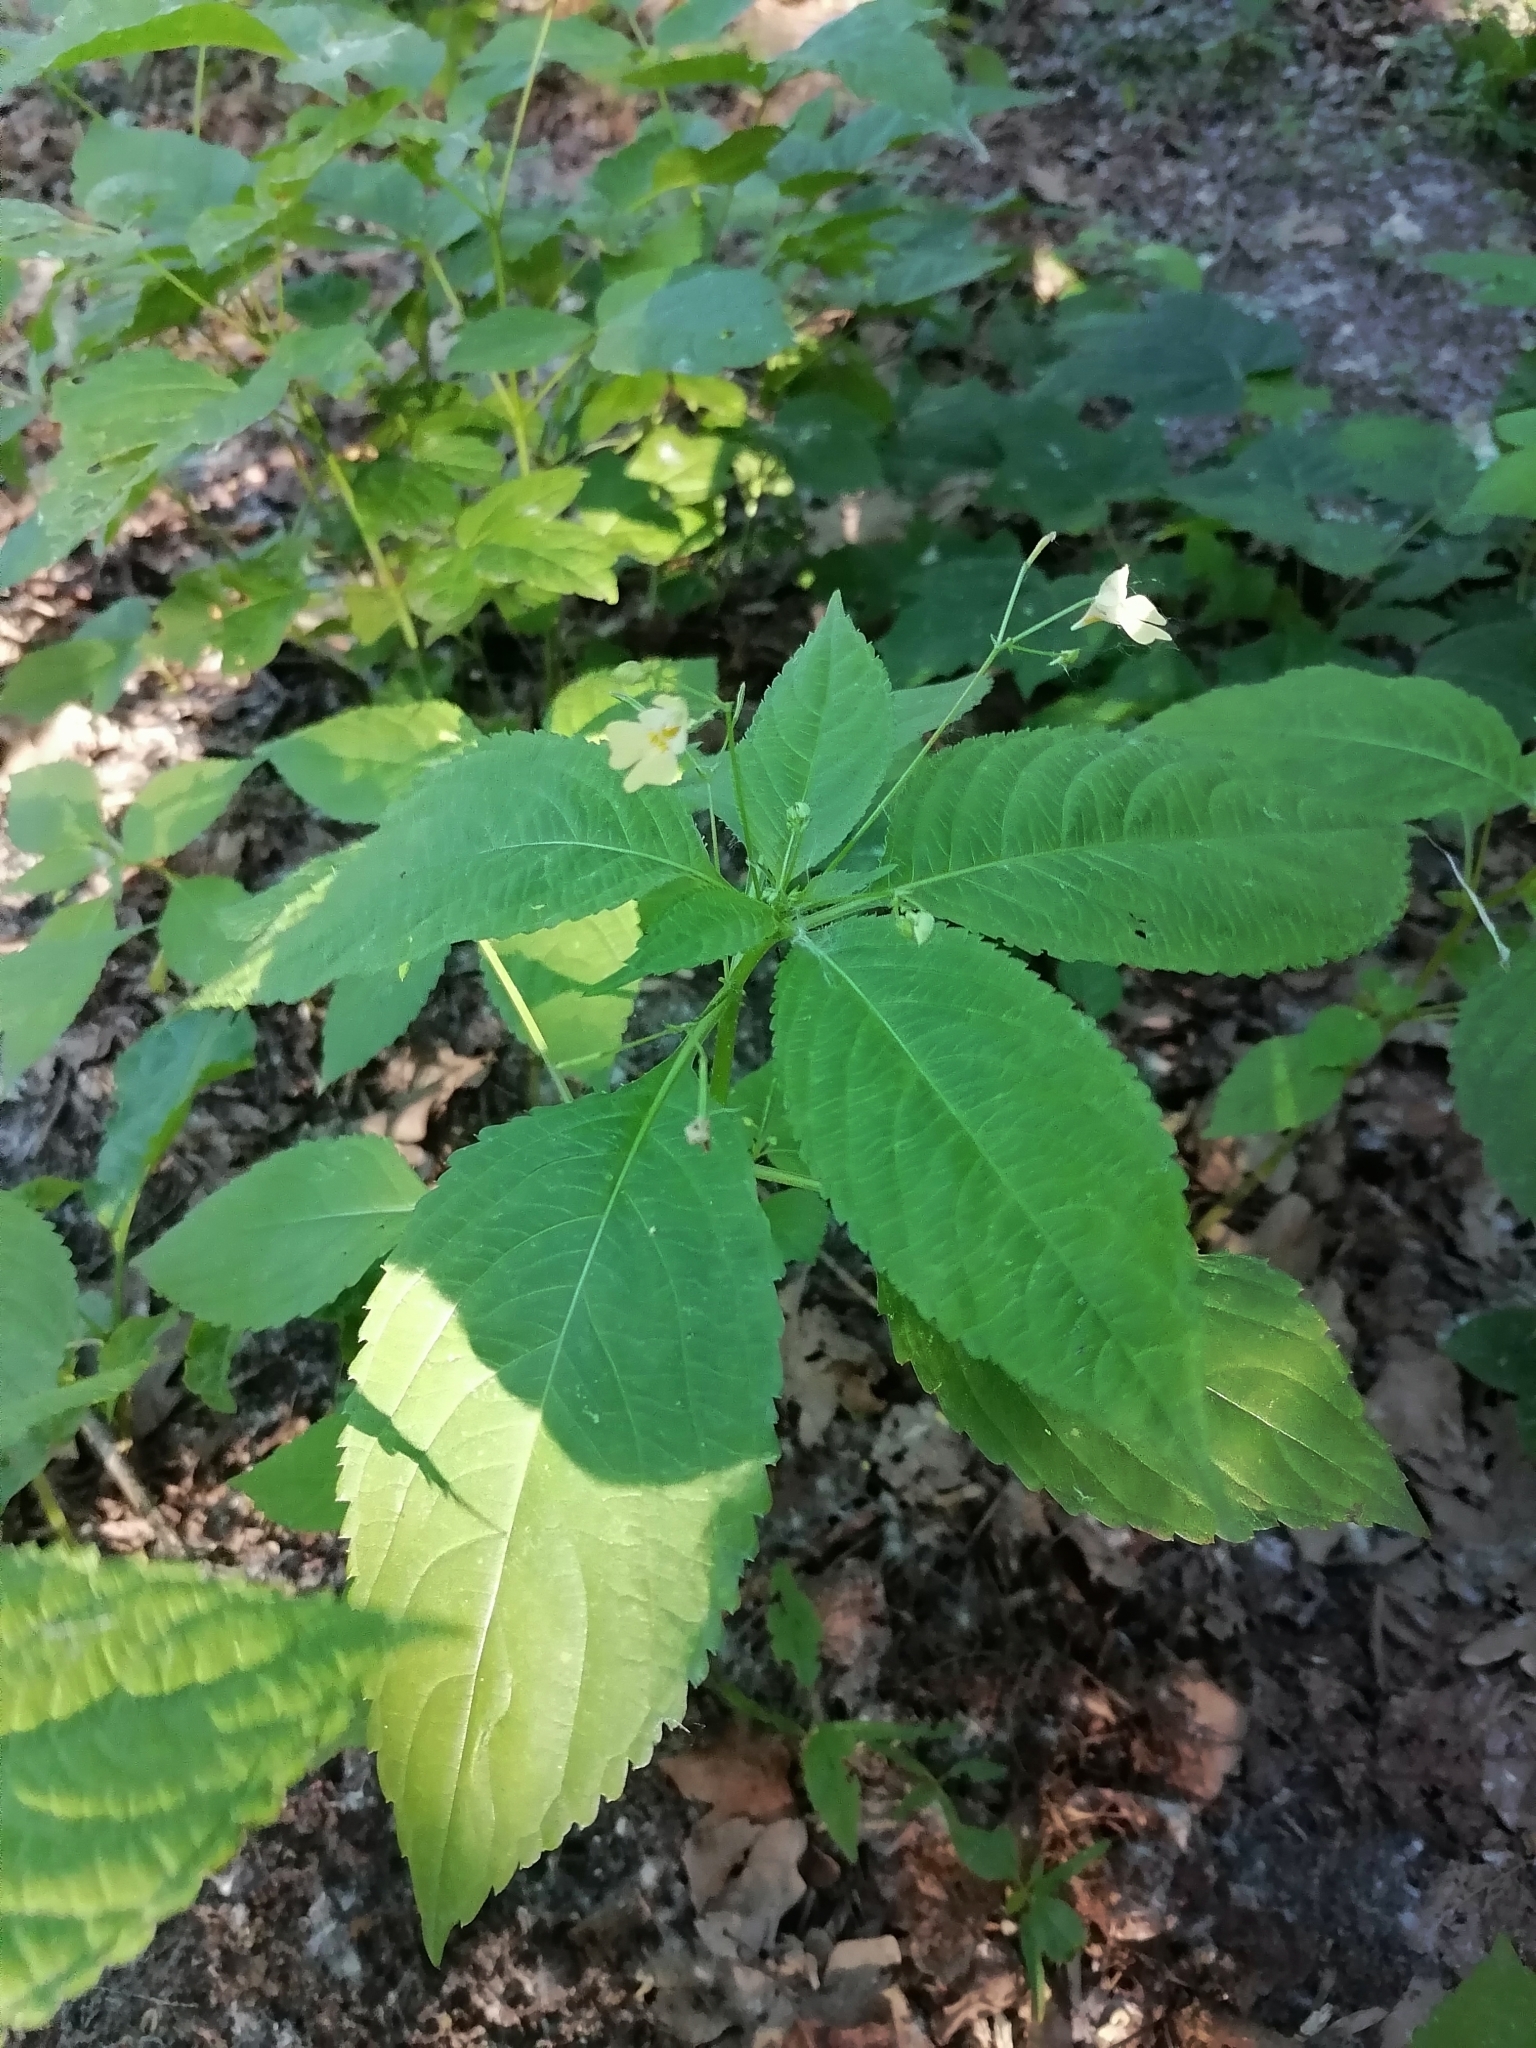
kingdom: Plantae
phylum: Tracheophyta
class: Magnoliopsida
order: Ericales
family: Balsaminaceae
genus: Impatiens
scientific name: Impatiens parviflora
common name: Small balsam
